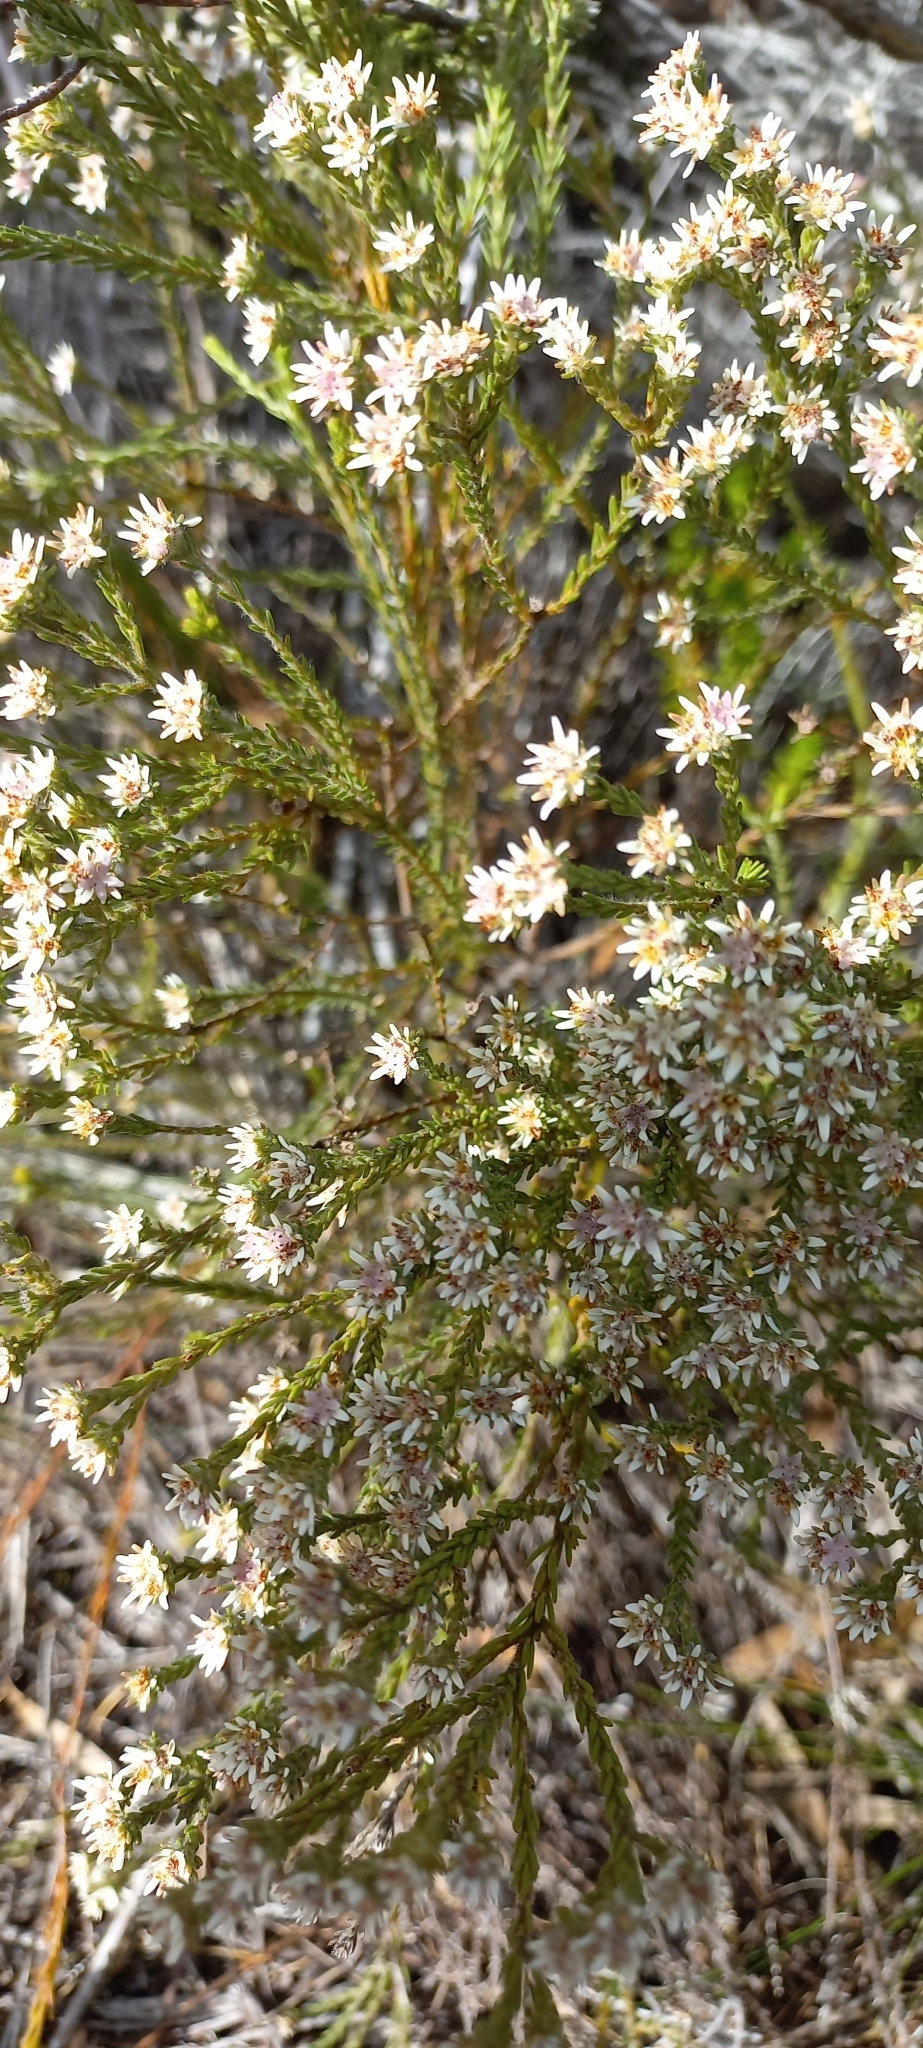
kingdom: Plantae
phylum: Tracheophyta
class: Magnoliopsida
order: Bruniales
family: Bruniaceae
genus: Staavia
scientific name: Staavia radiata
